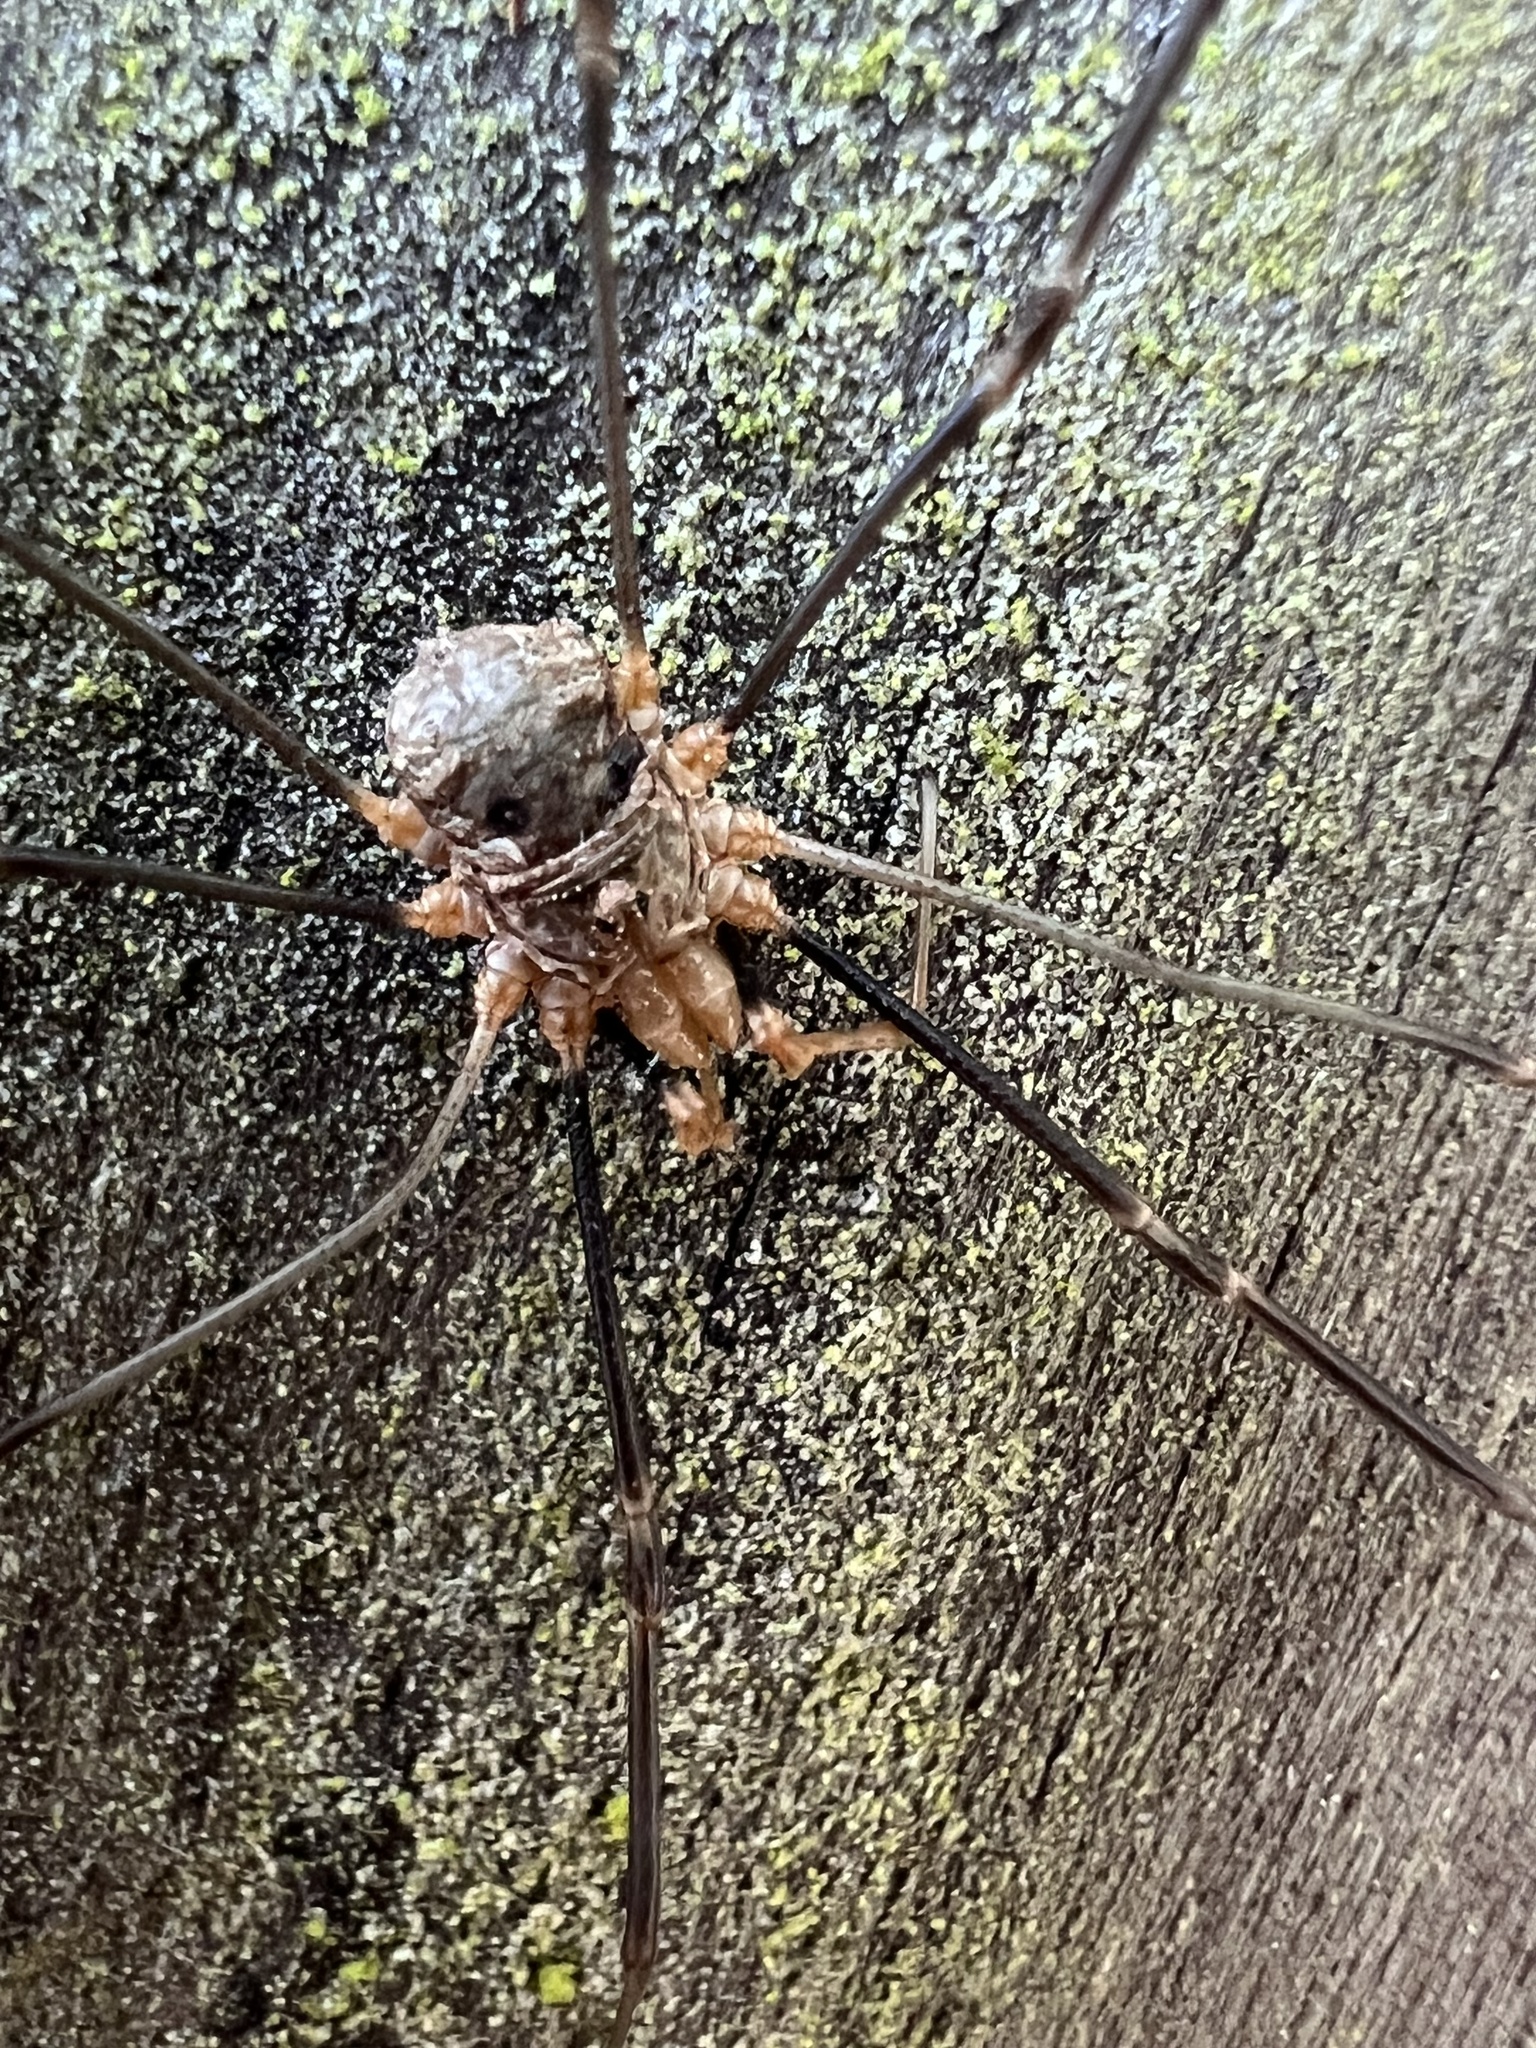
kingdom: Animalia
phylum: Arthropoda
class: Arachnida
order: Opiliones
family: Phalangiidae
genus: Phalangium
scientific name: Phalangium opilio
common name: Daddy longleg
